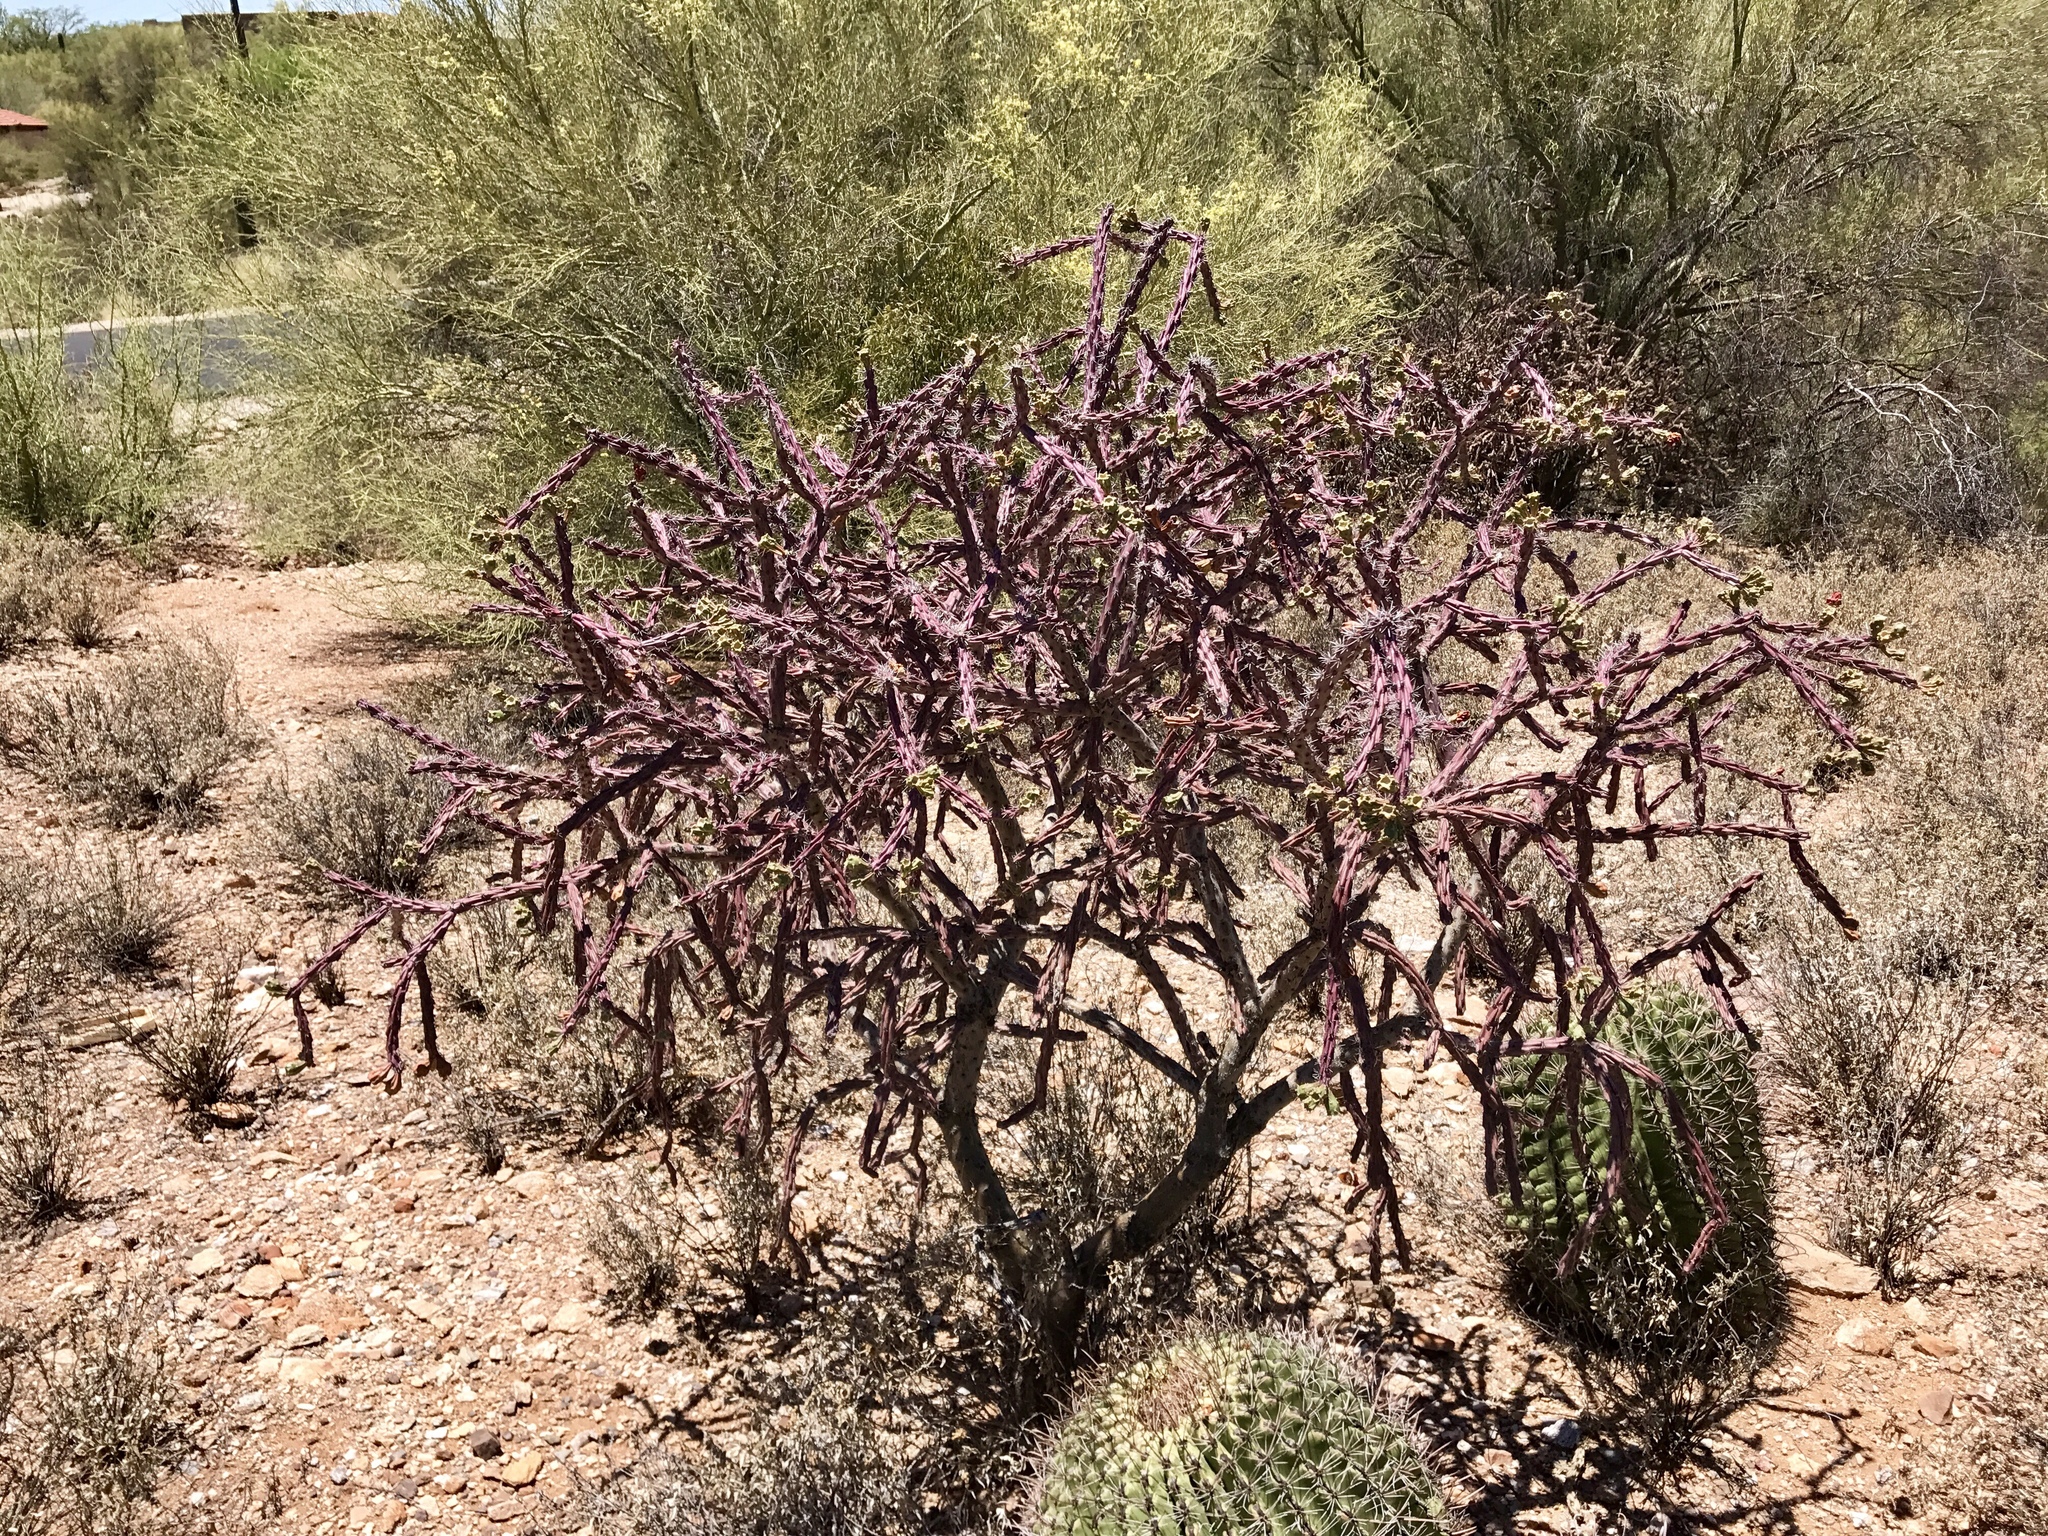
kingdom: Plantae
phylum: Tracheophyta
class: Magnoliopsida
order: Caryophyllales
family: Cactaceae
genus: Cylindropuntia
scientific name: Cylindropuntia thurberi
